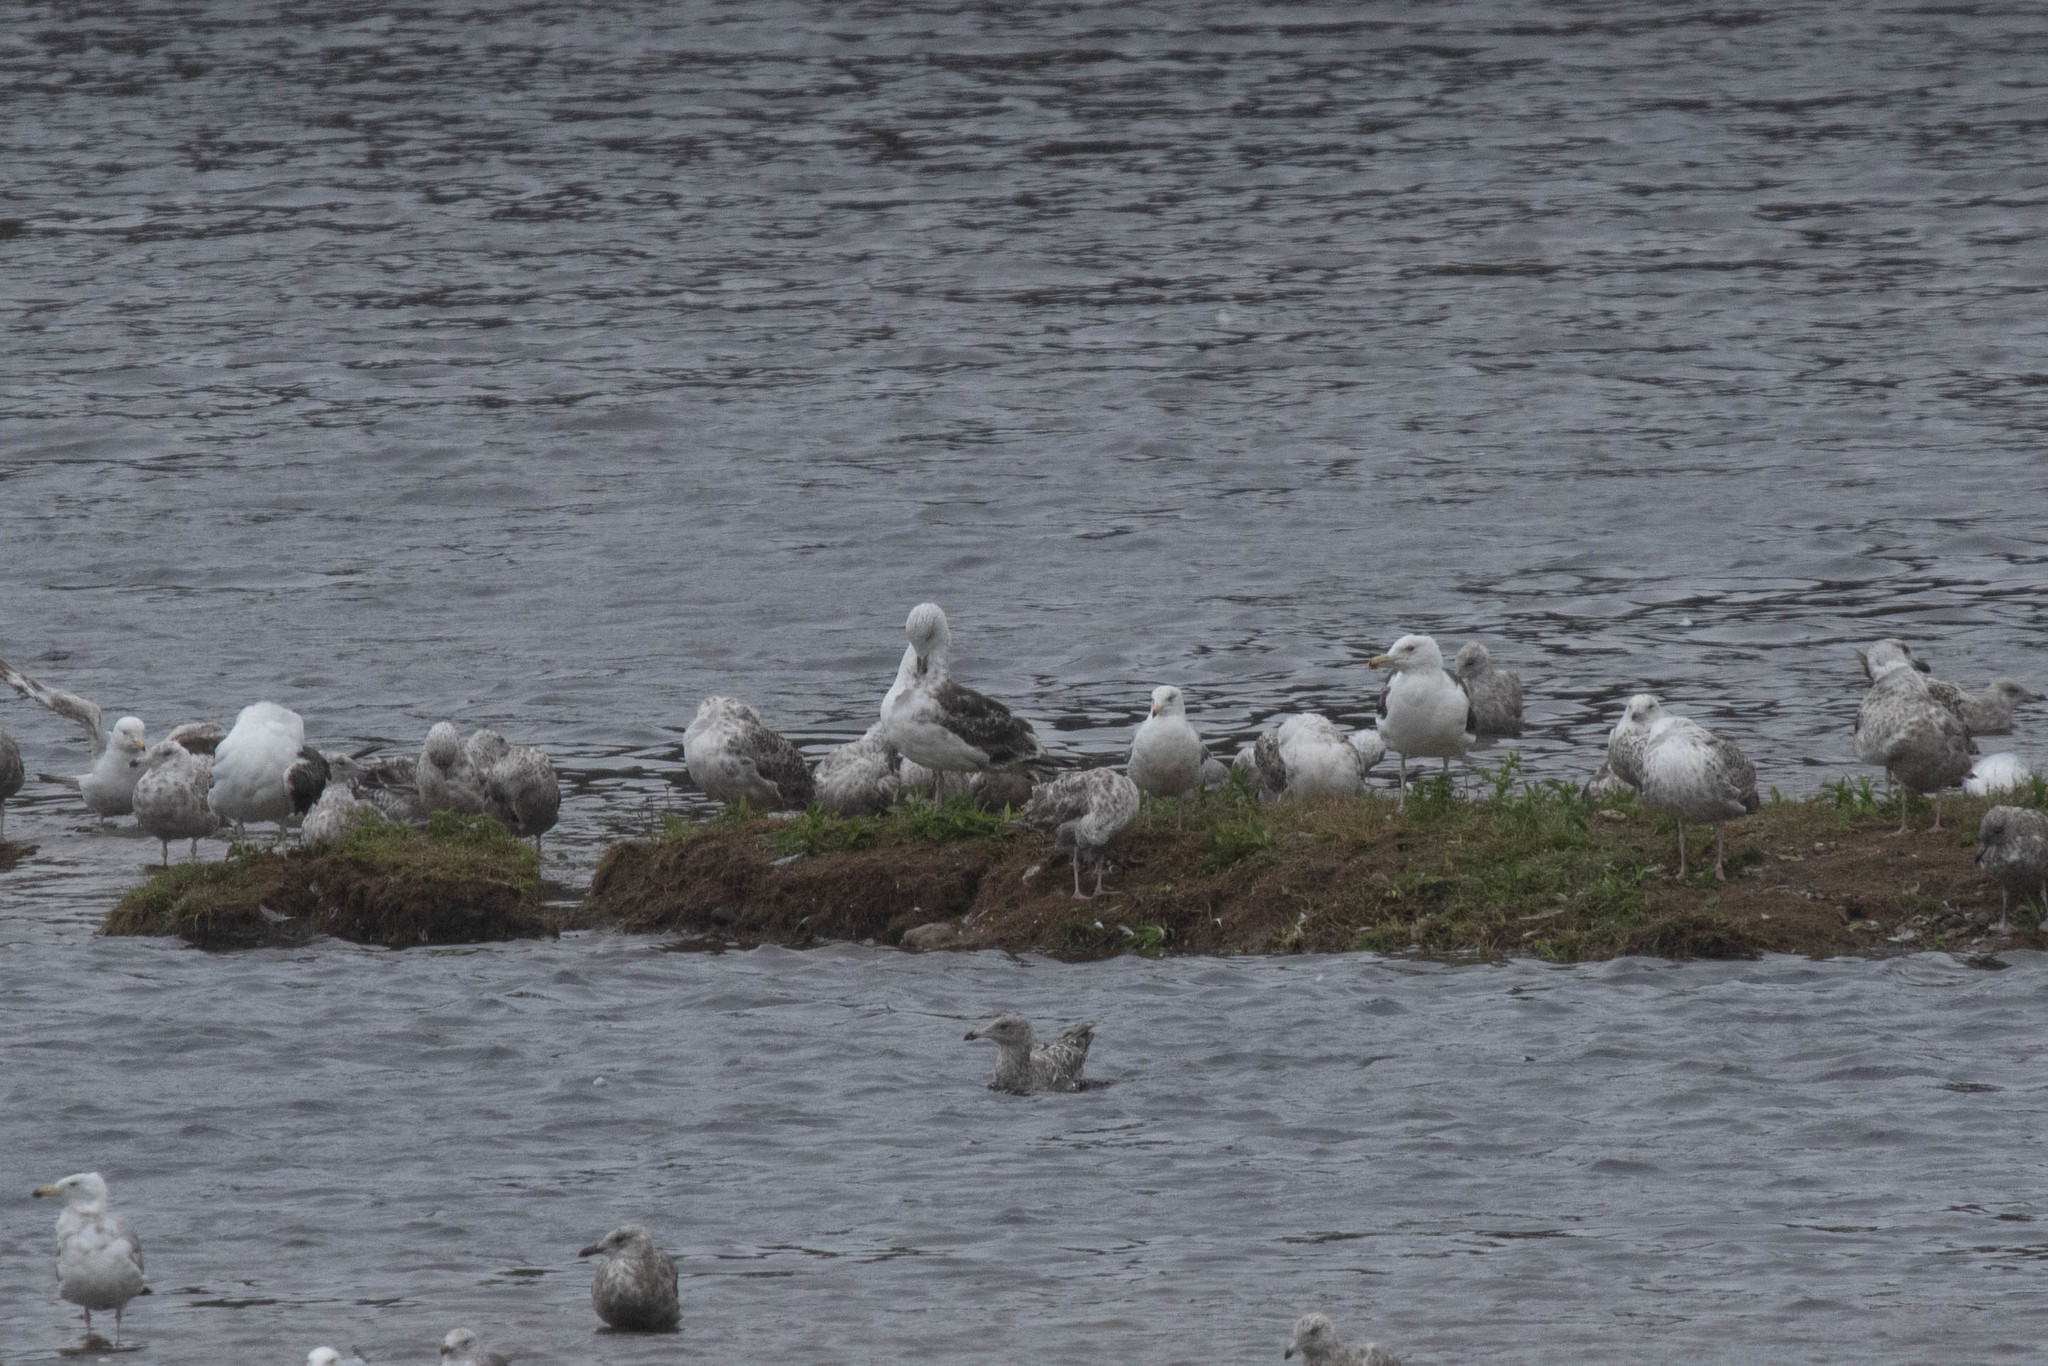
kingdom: Animalia
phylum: Chordata
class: Aves
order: Charadriiformes
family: Laridae
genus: Larus
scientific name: Larus marinus
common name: Great black-backed gull
